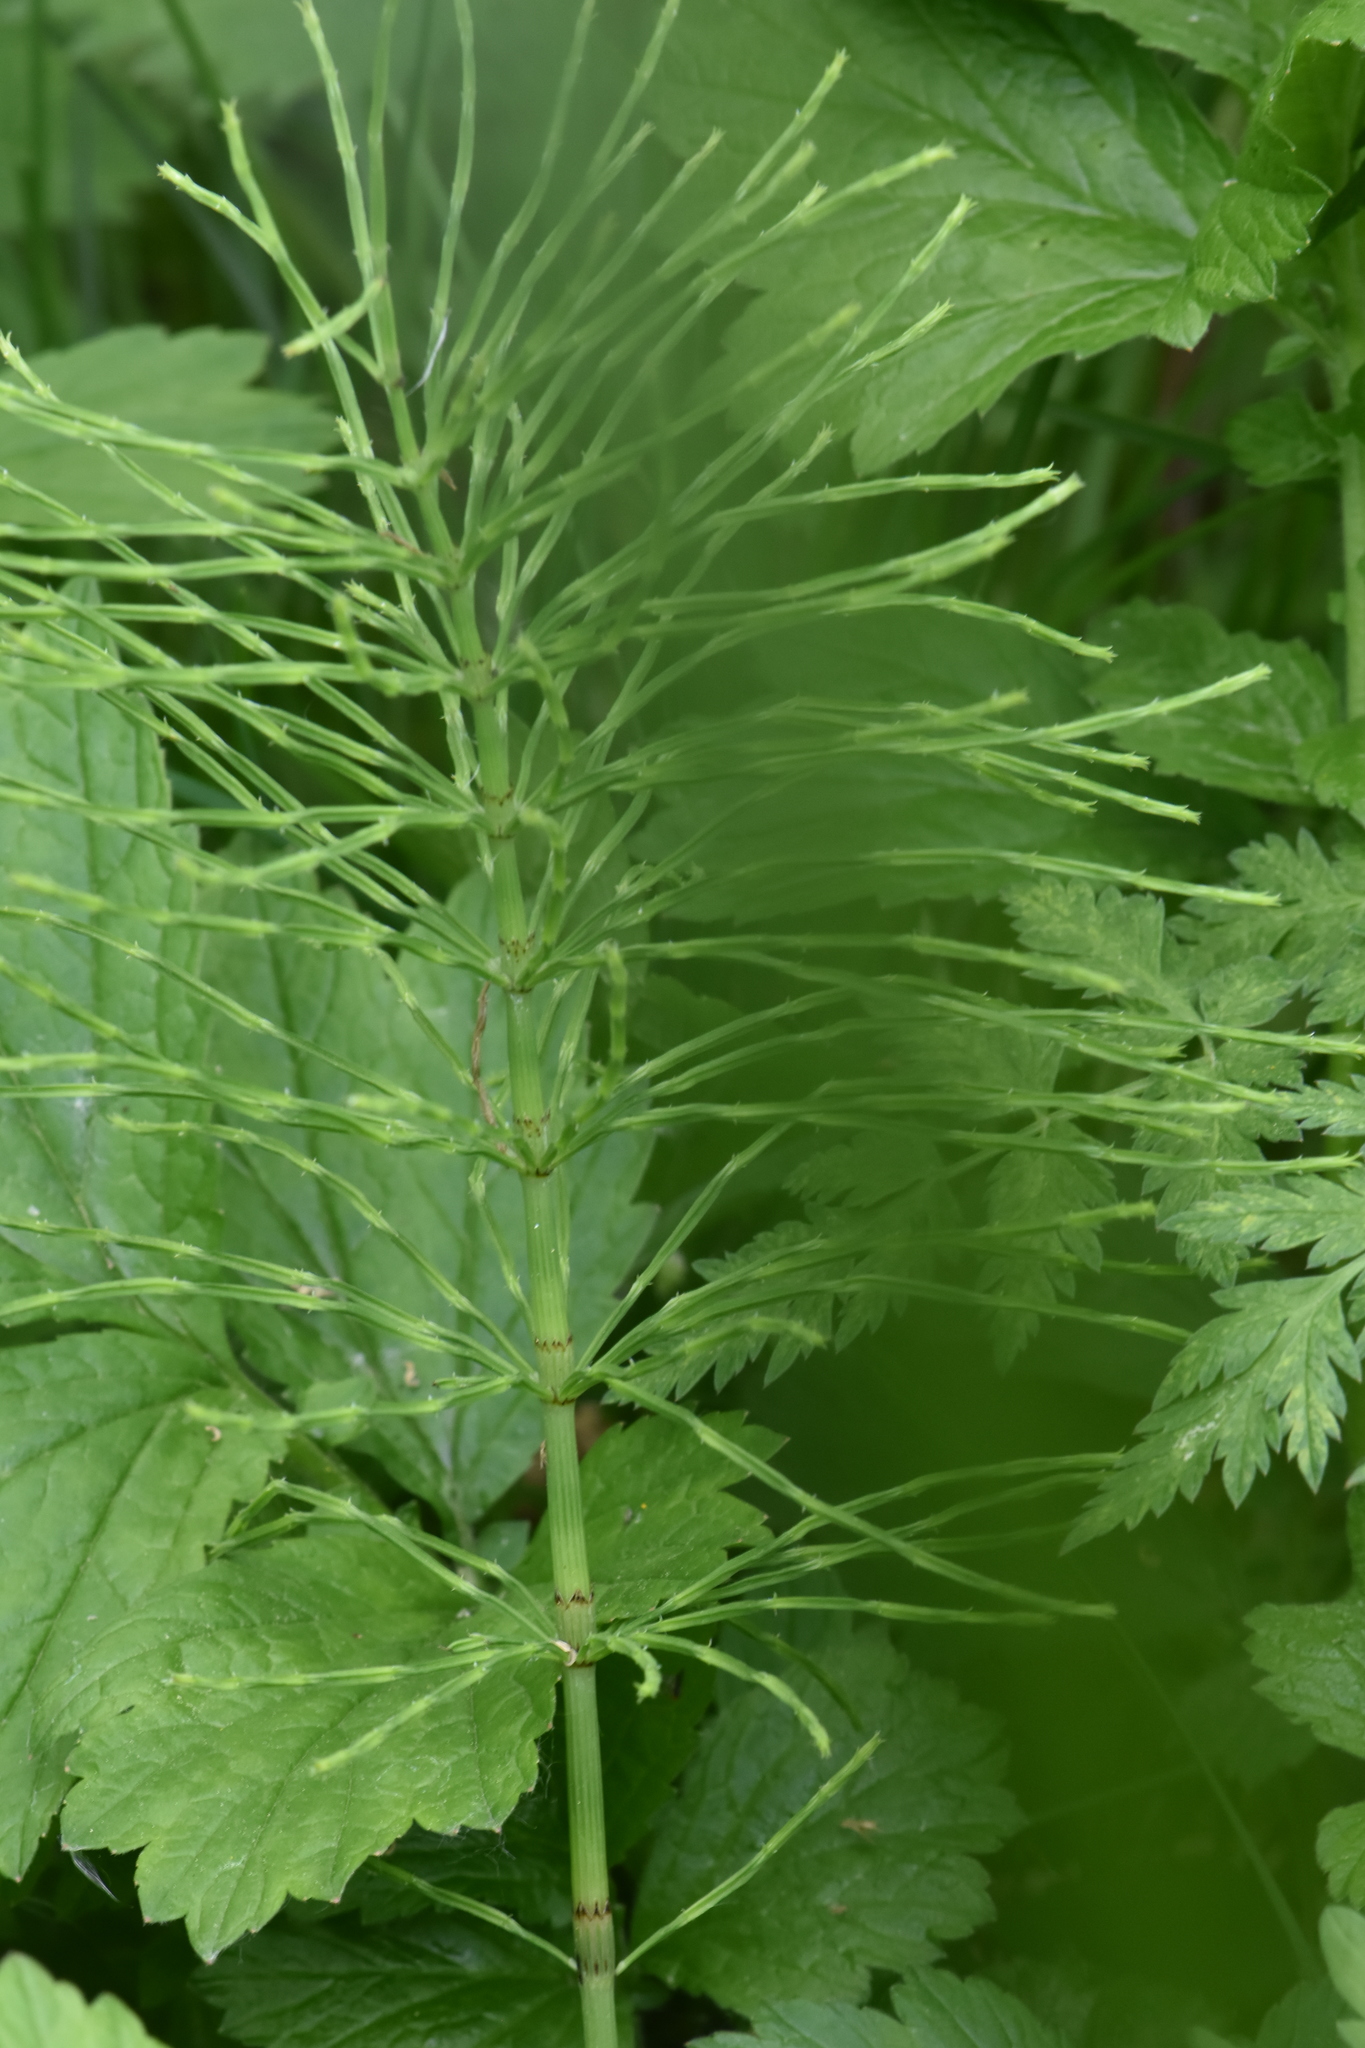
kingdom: Plantae
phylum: Tracheophyta
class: Polypodiopsida
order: Equisetales
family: Equisetaceae
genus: Equisetum
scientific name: Equisetum arvense
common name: Field horsetail
